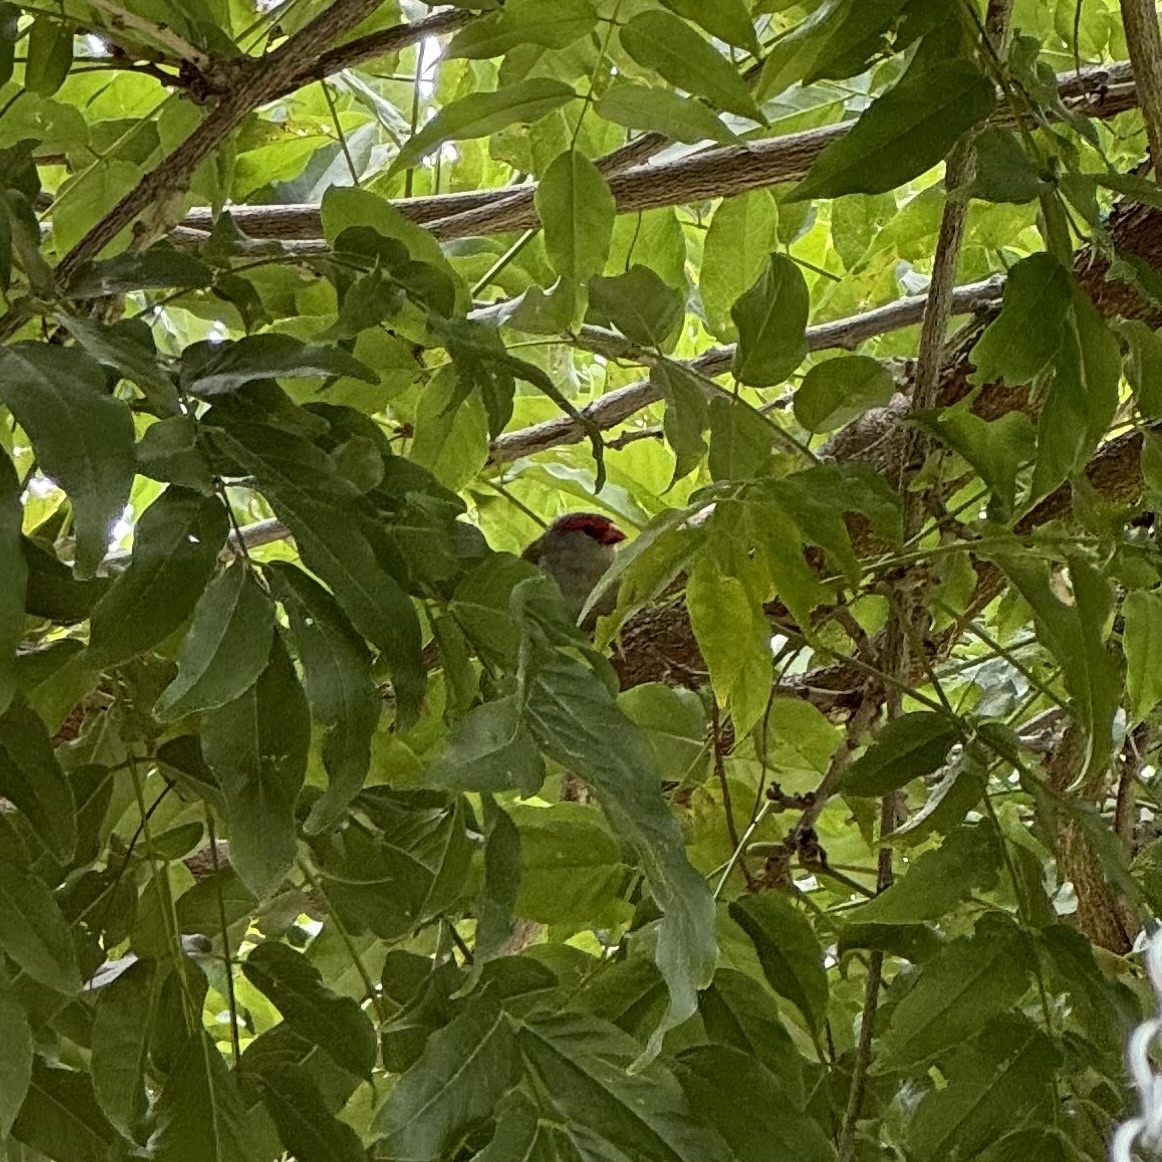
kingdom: Animalia
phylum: Chordata
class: Aves
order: Passeriformes
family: Estrildidae
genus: Neochmia
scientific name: Neochmia temporalis
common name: Red-browed finch
